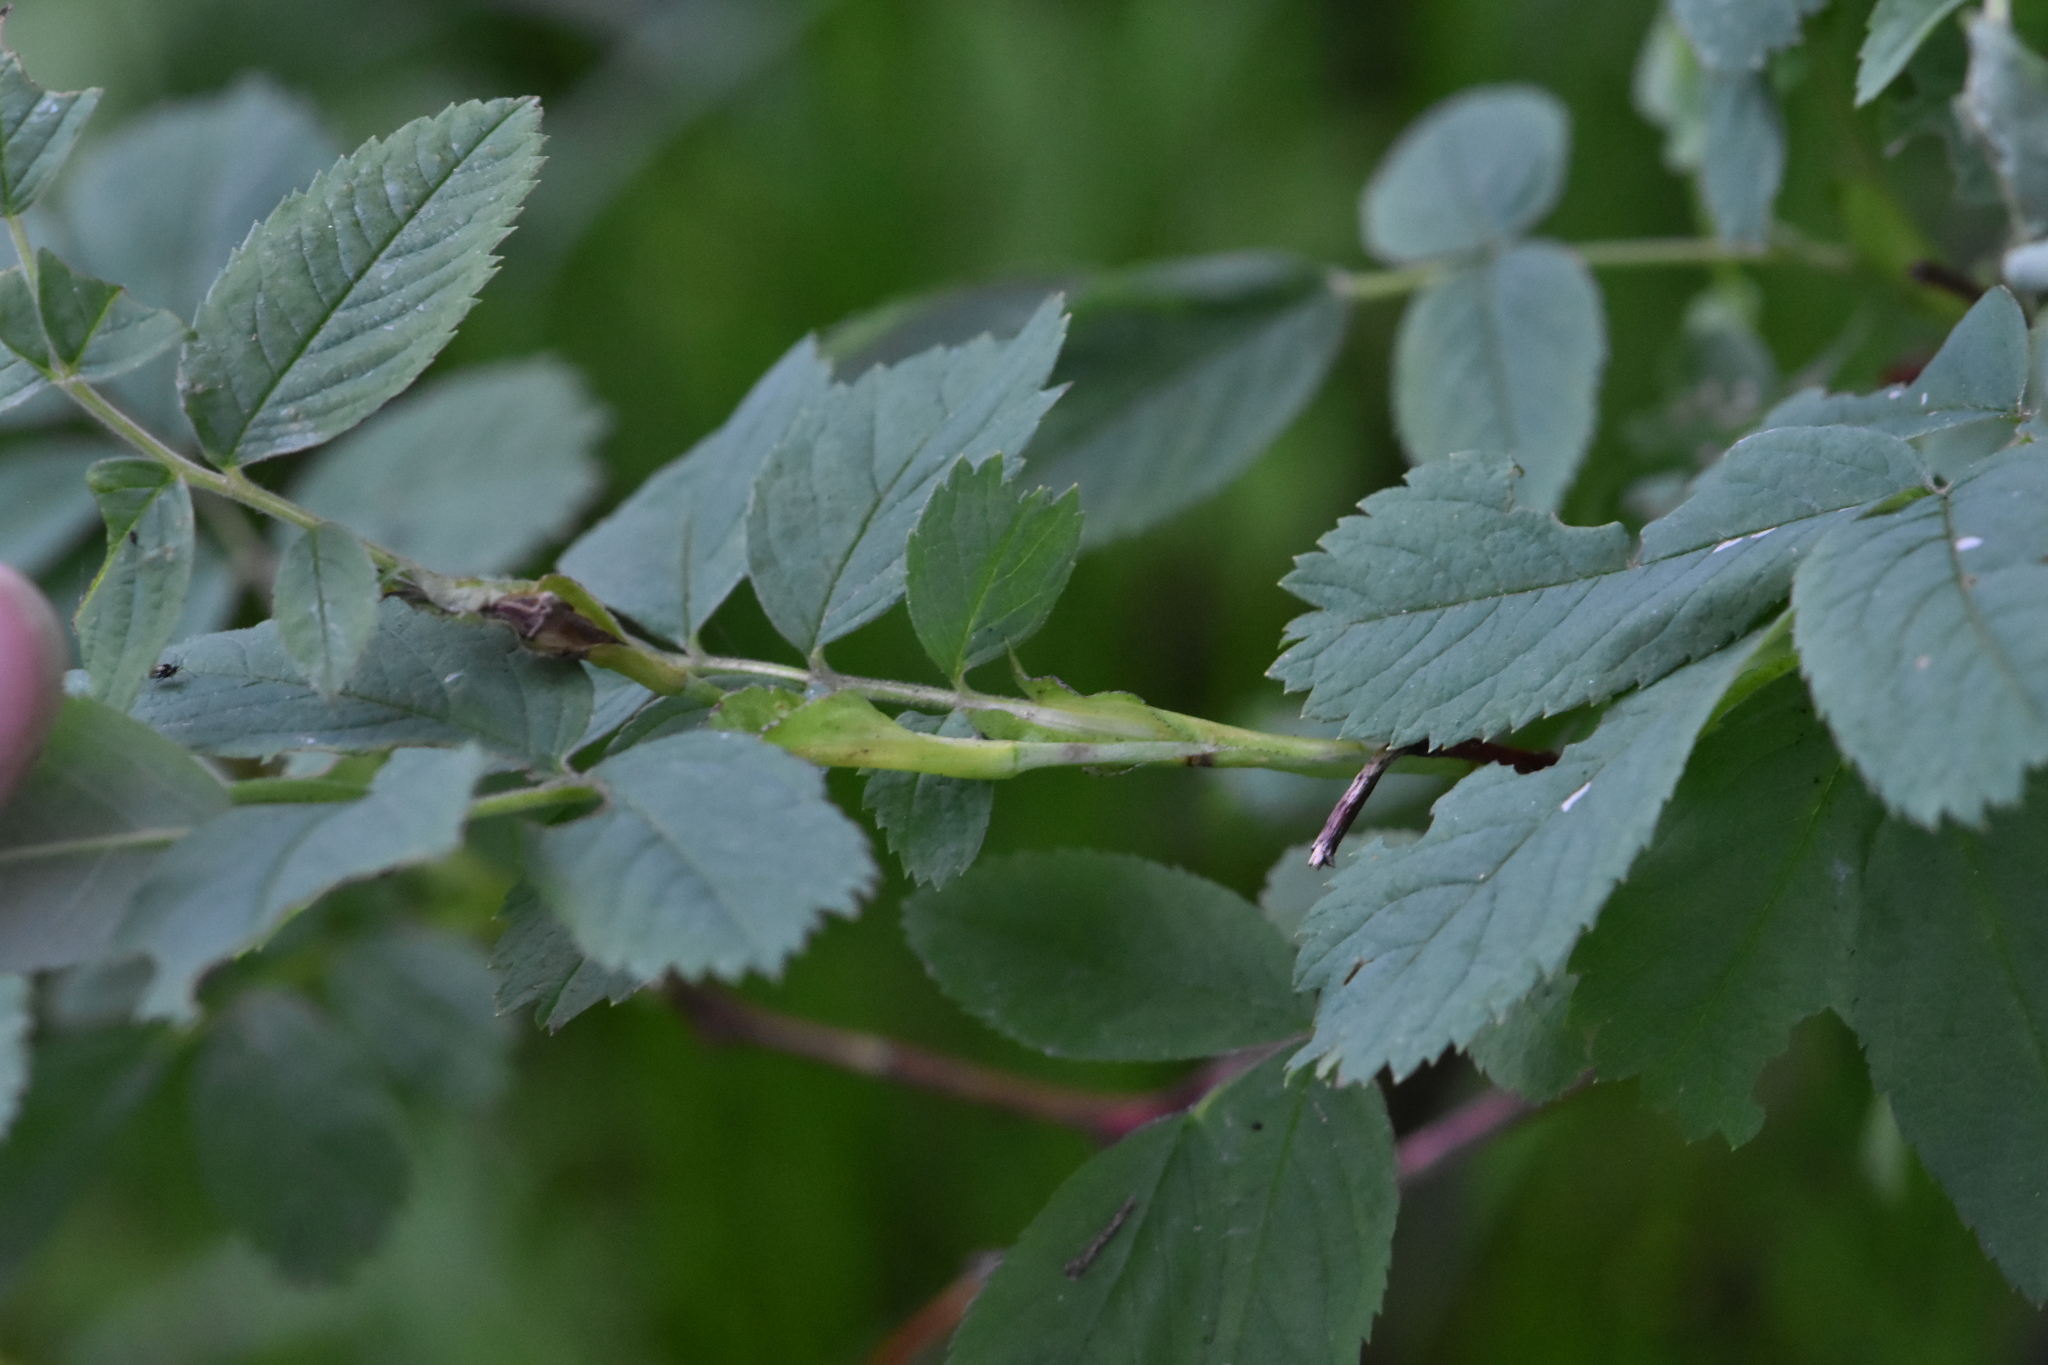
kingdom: Plantae
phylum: Tracheophyta
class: Magnoliopsida
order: Rosales
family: Rosaceae
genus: Rosa
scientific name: Rosa majalis
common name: Cinnamon rose
